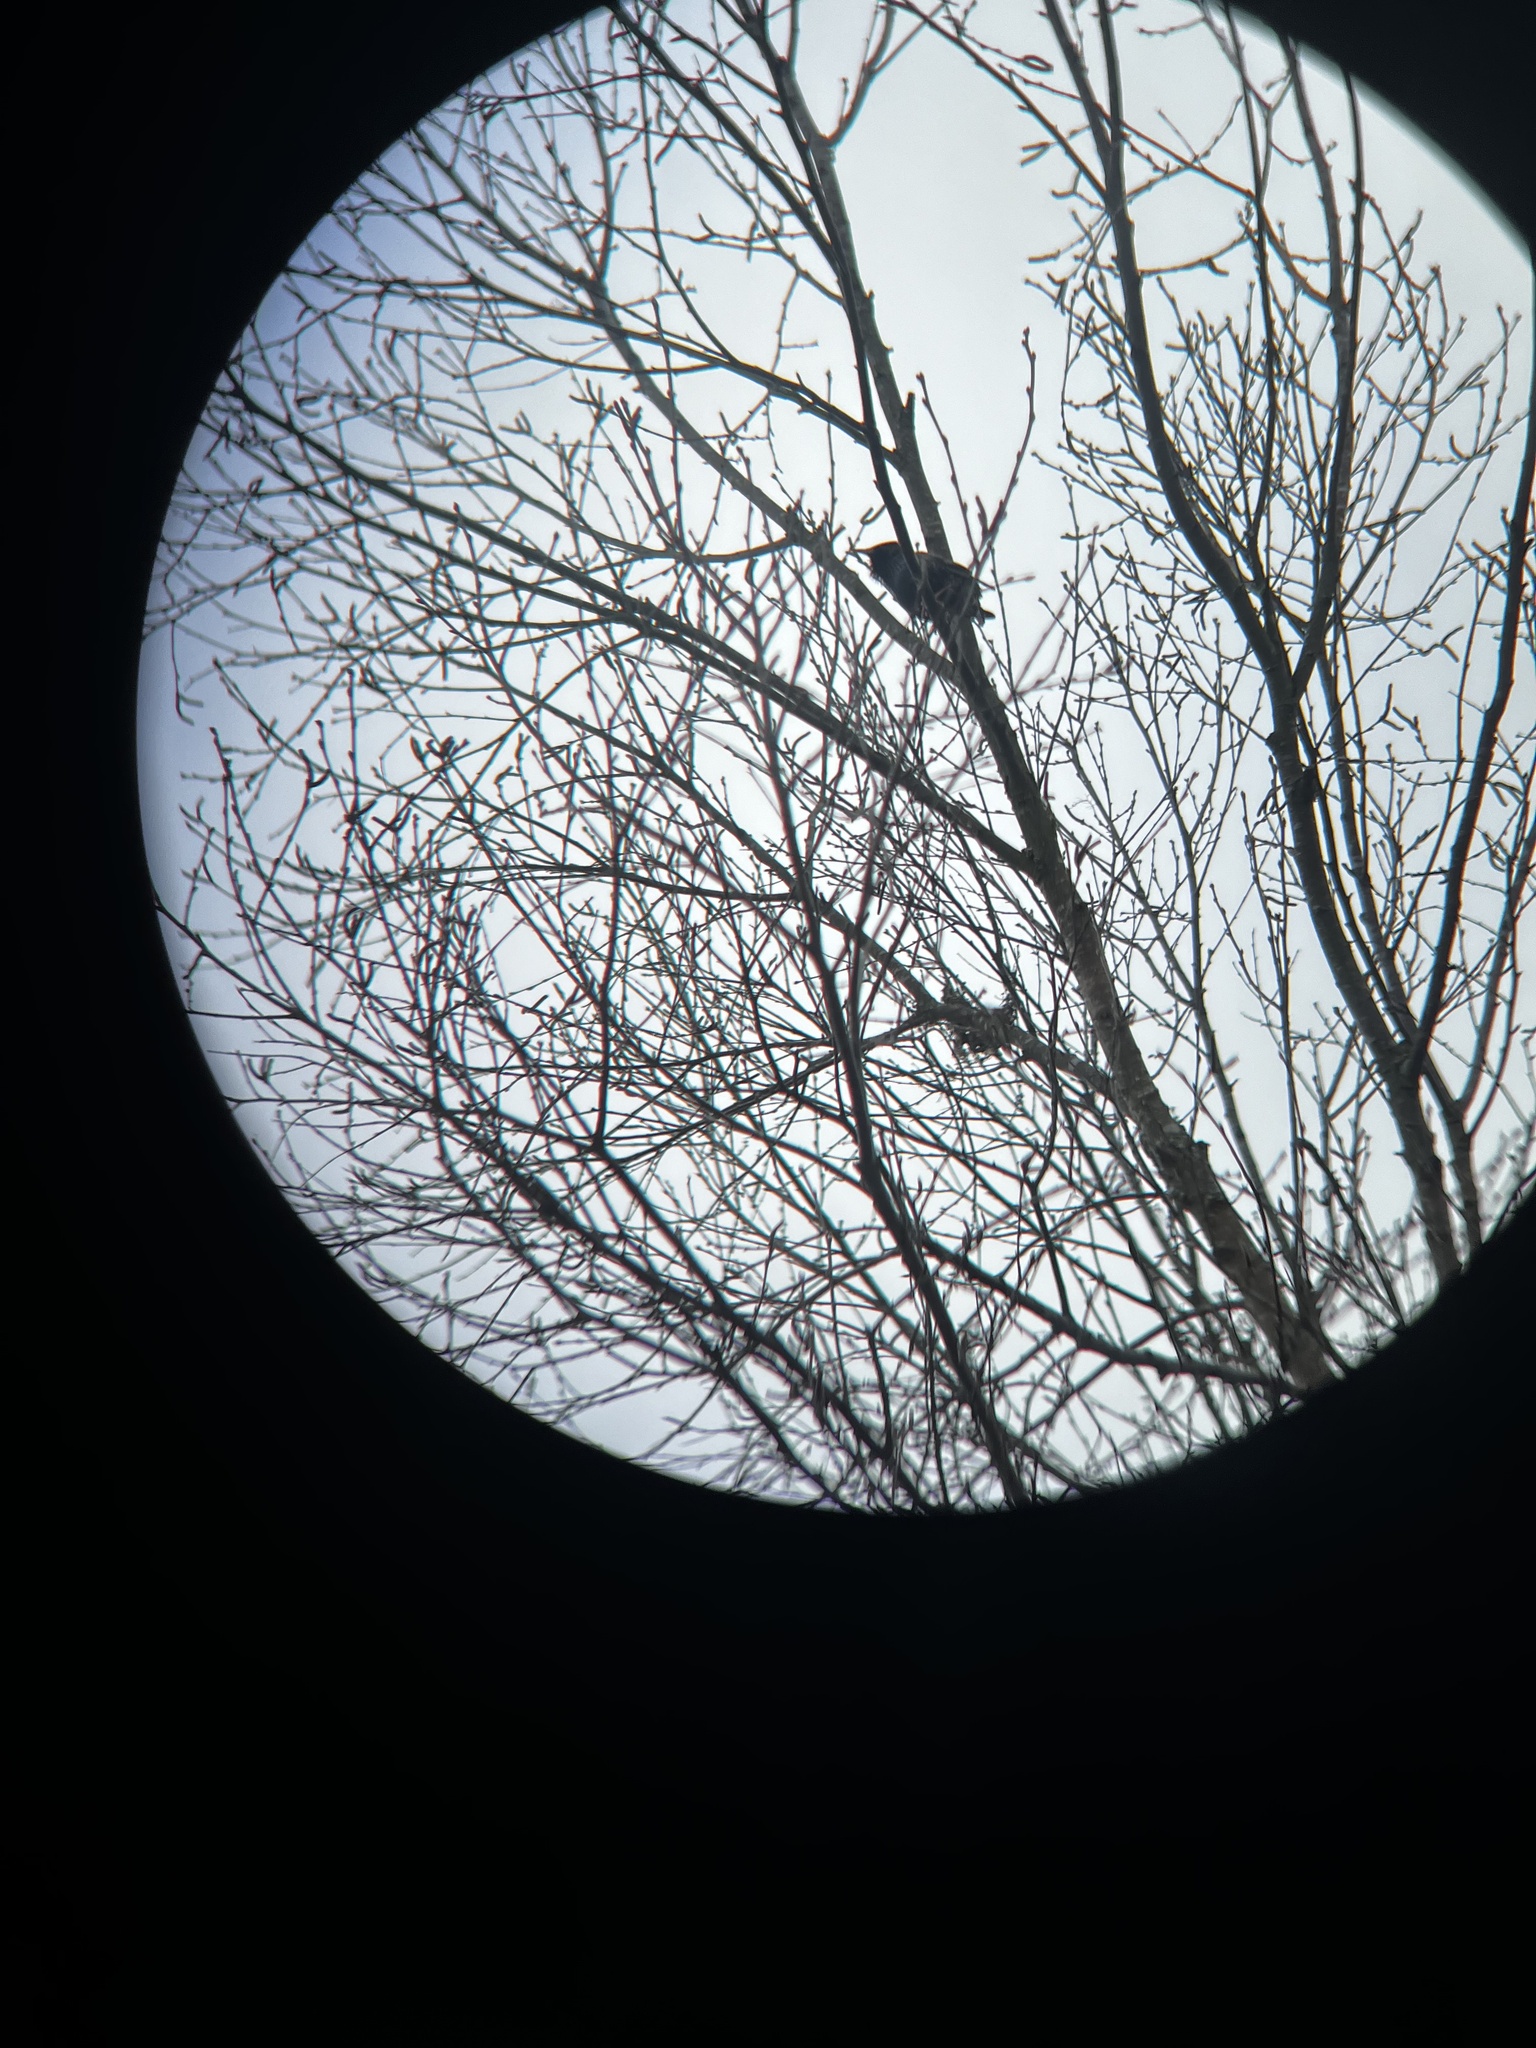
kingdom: Animalia
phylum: Chordata
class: Aves
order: Passeriformes
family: Sturnidae
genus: Sturnus
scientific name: Sturnus vulgaris
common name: Common starling
